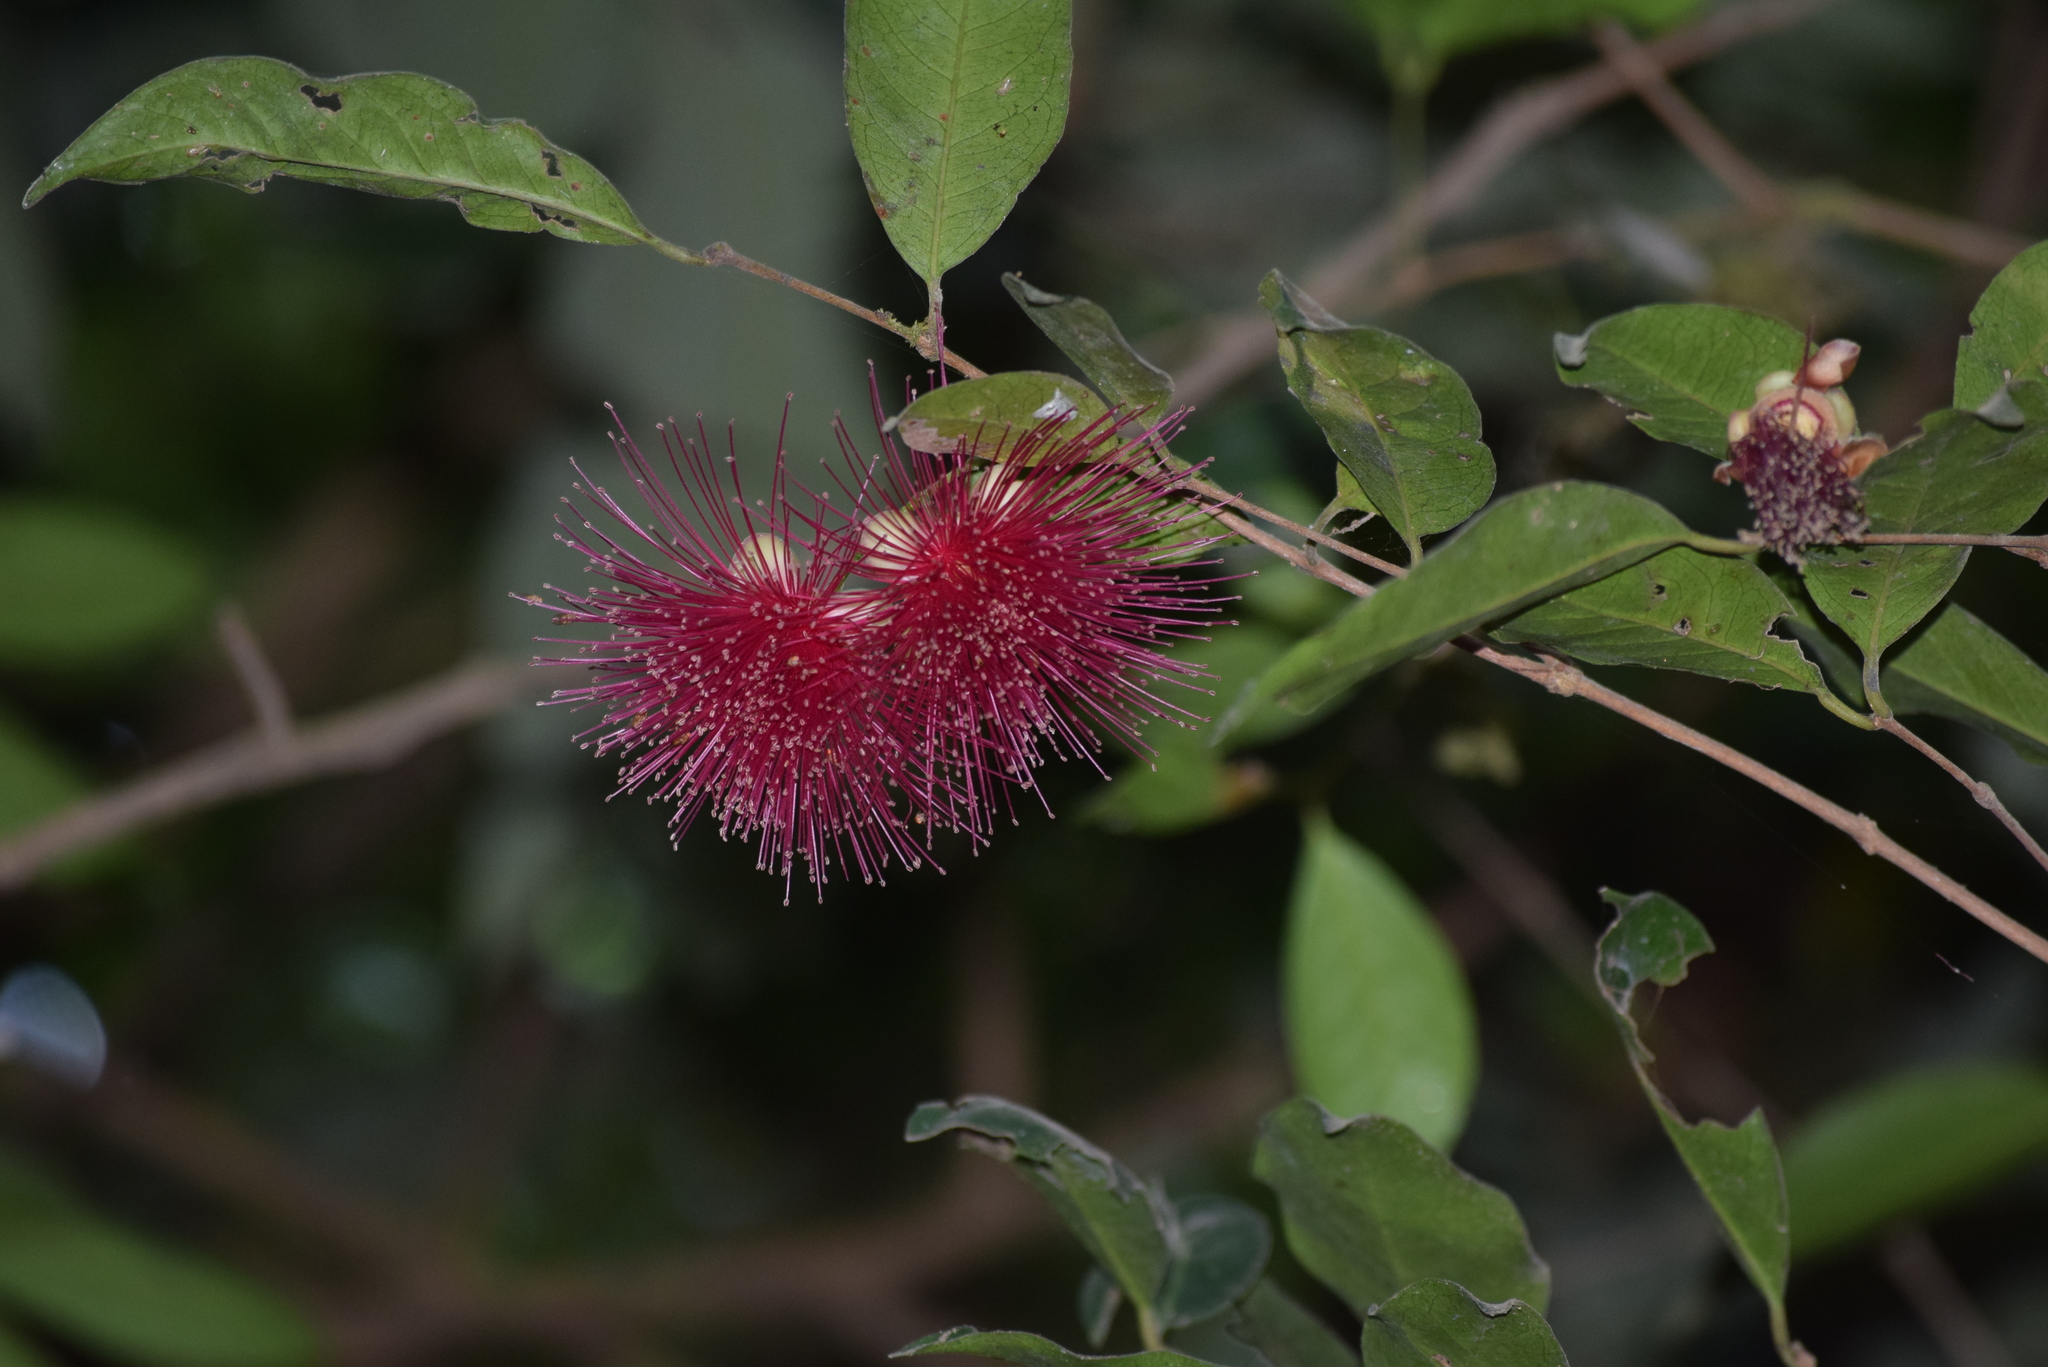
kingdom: Plantae
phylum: Tracheophyta
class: Magnoliopsida
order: Myrtales
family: Myrtaceae
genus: Syzygium
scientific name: Syzygium laetum
